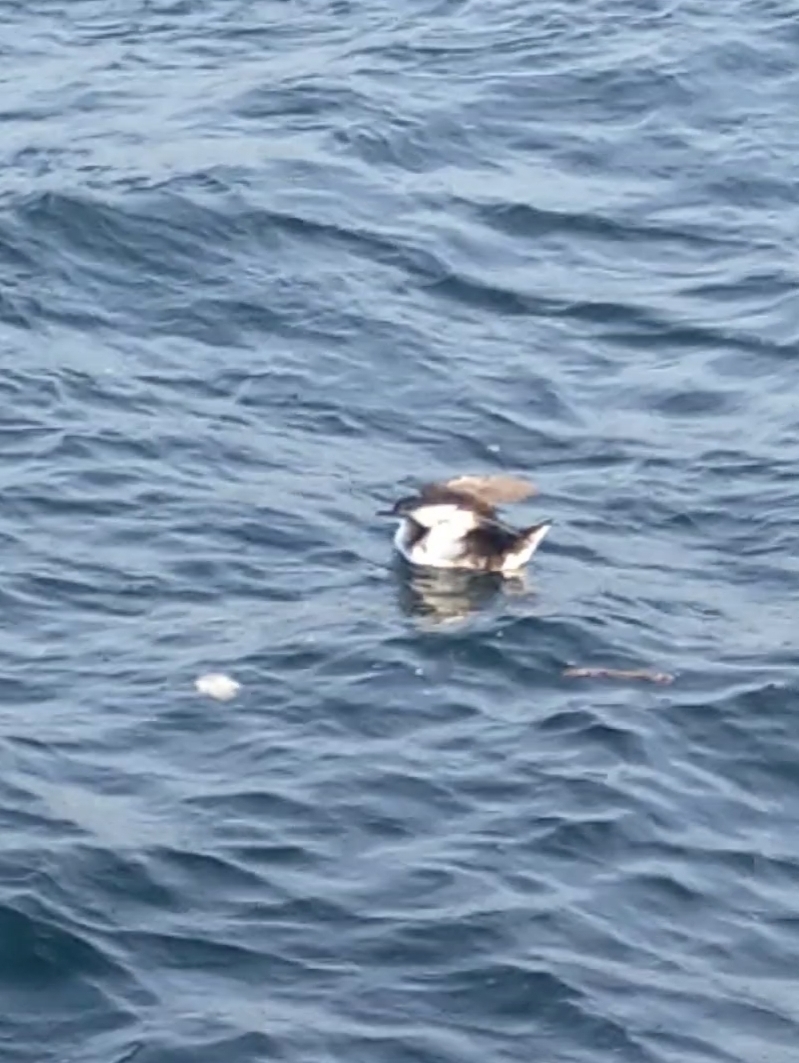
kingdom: Animalia
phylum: Chordata
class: Aves
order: Procellariiformes
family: Procellariidae
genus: Puffinus
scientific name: Puffinus yelkouan
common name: Yelkouan shearwater
